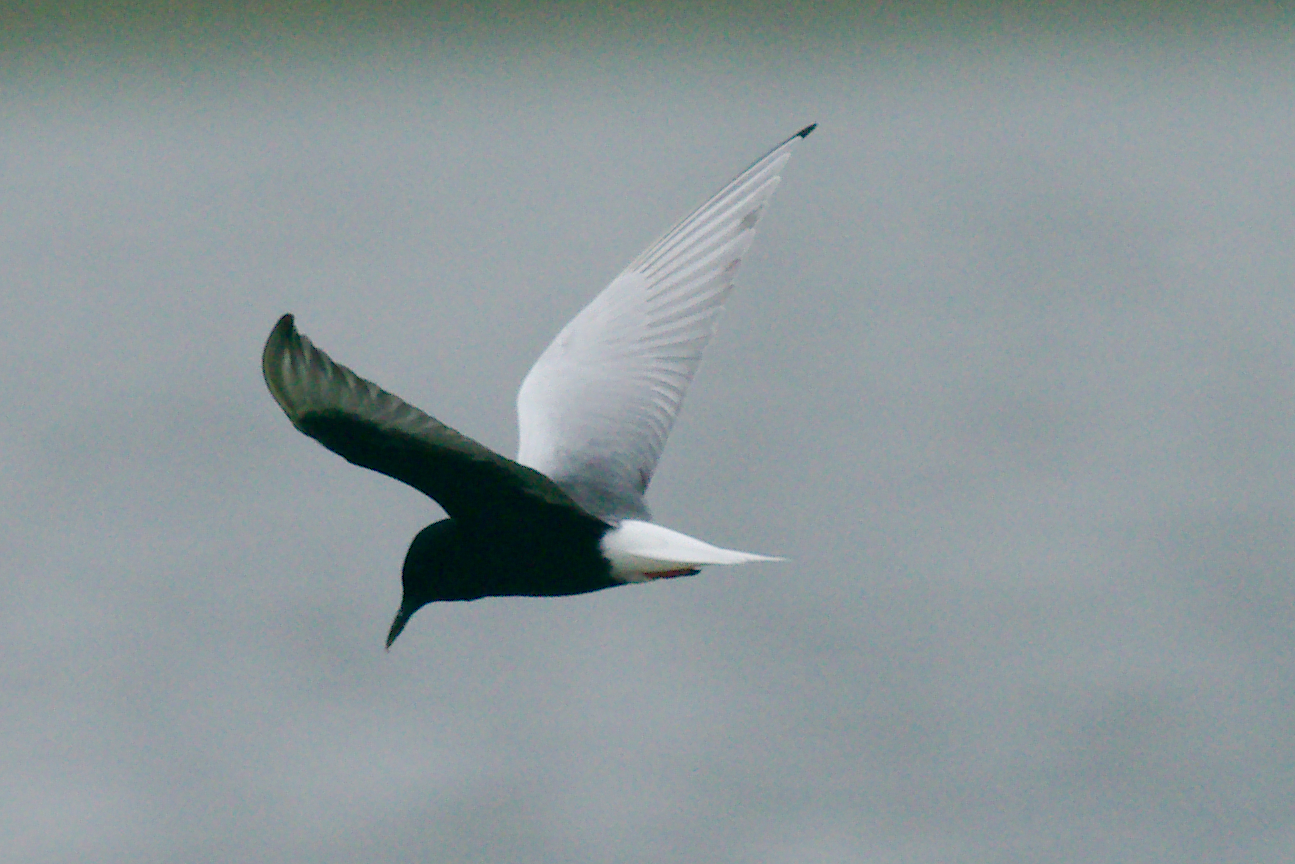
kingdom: Animalia
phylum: Chordata
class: Aves
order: Charadriiformes
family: Laridae
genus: Chlidonias
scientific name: Chlidonias leucopterus
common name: White-winged tern
